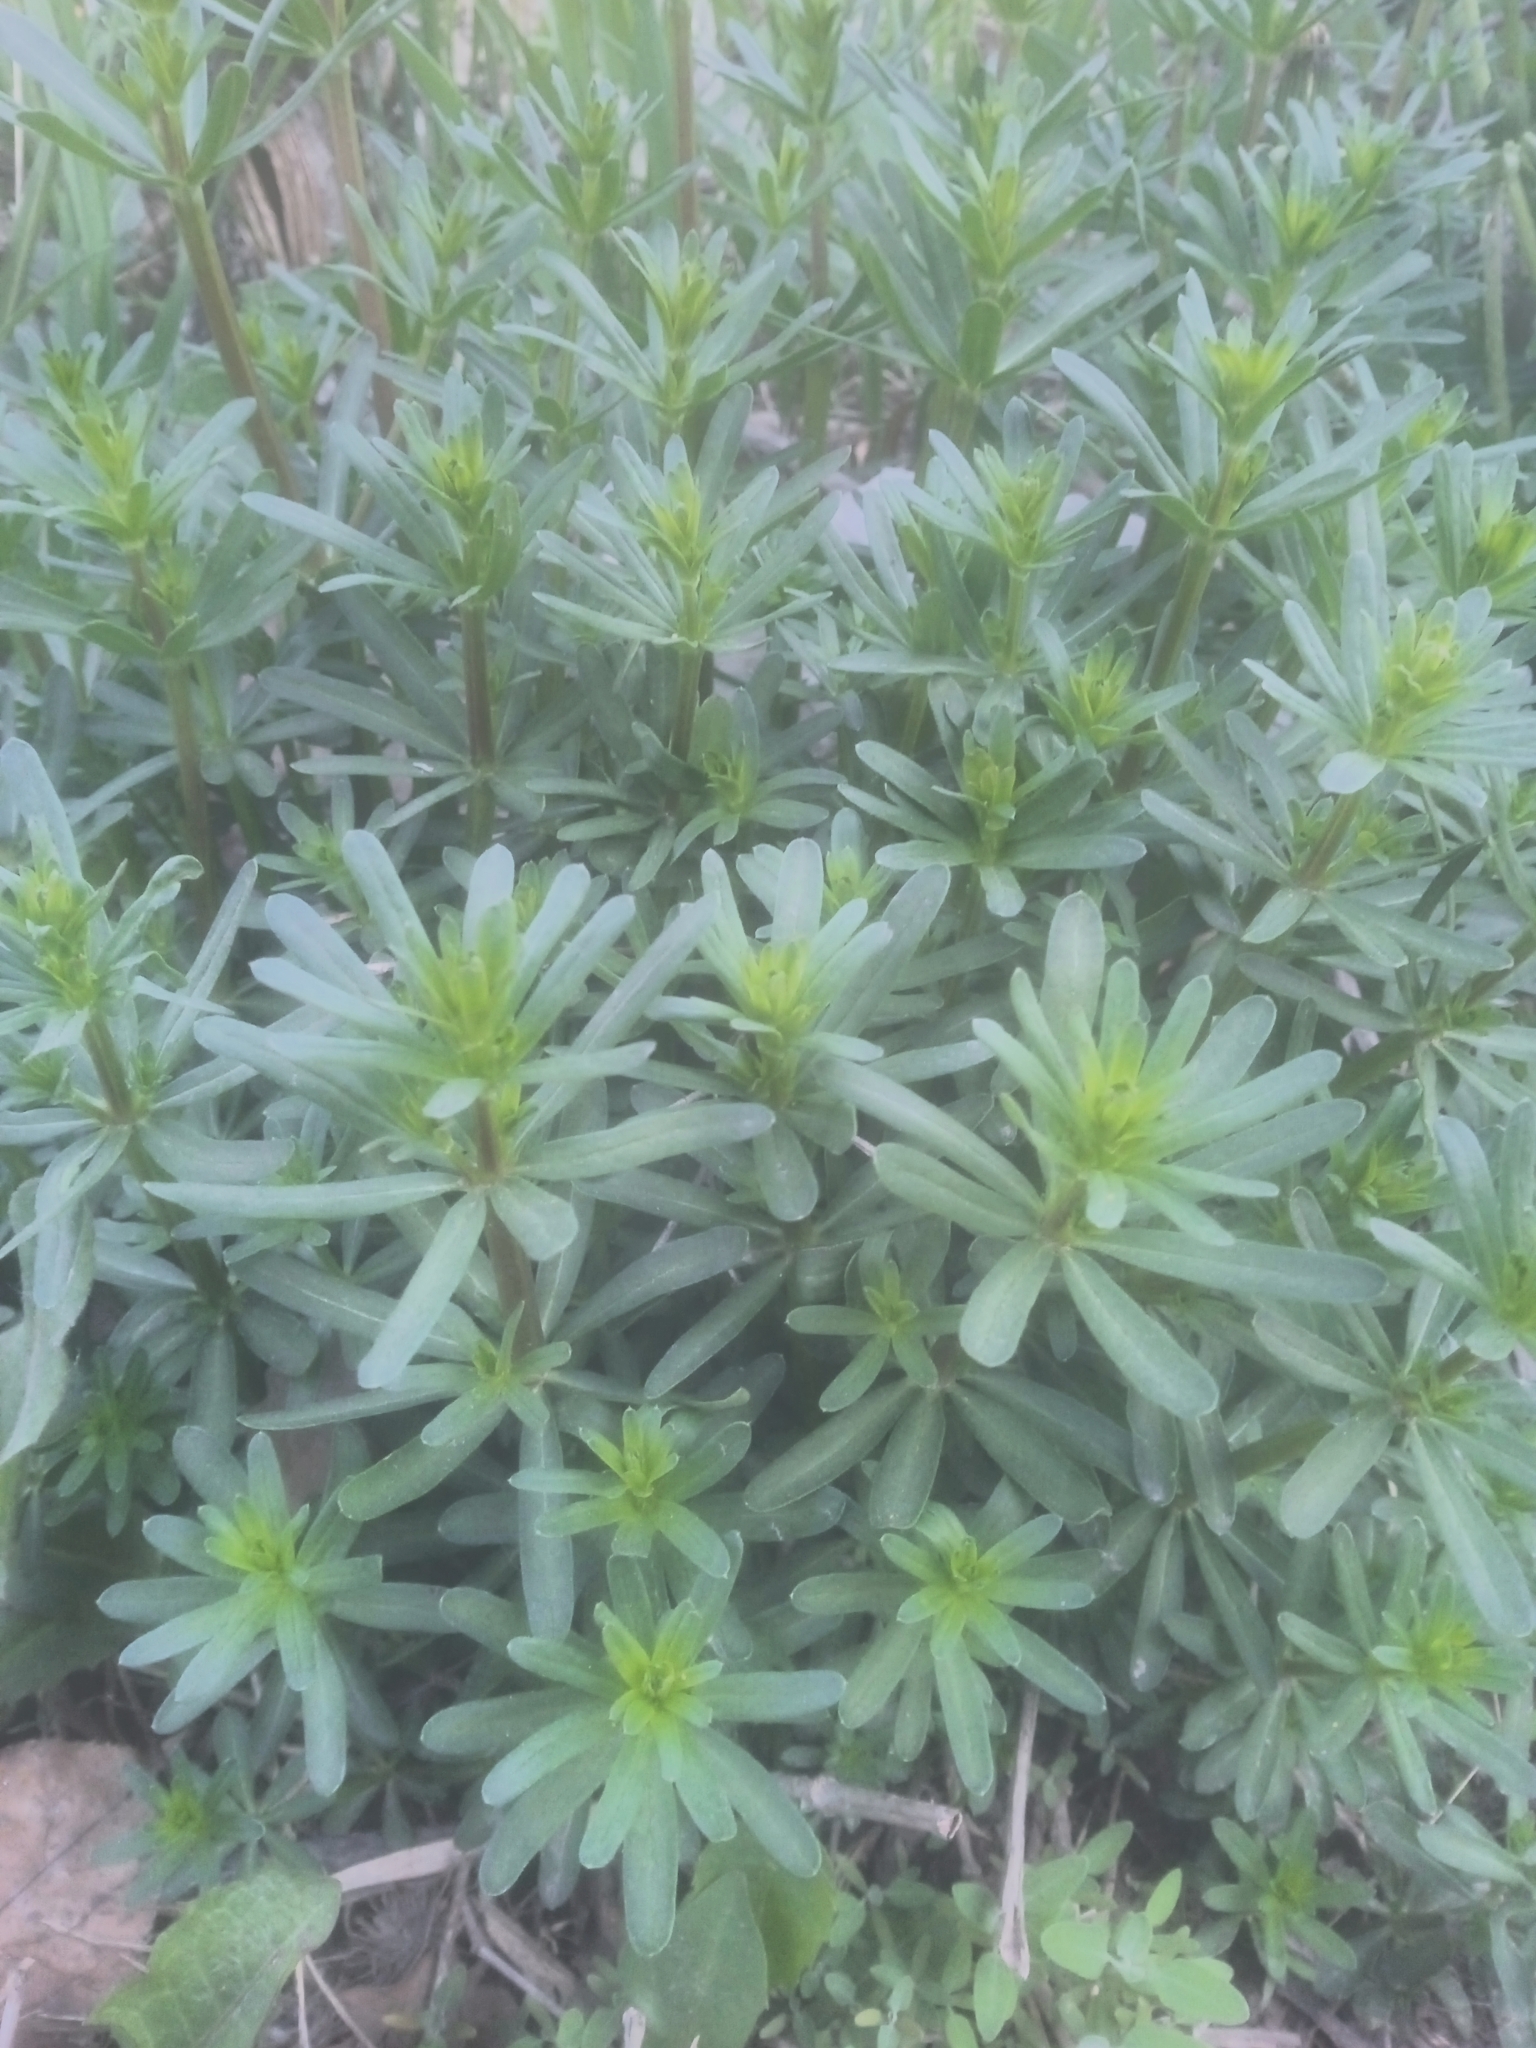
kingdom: Plantae
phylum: Tracheophyta
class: Magnoliopsida
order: Gentianales
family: Rubiaceae
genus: Galium
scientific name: Galium mollugo
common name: Hedge bedstraw
